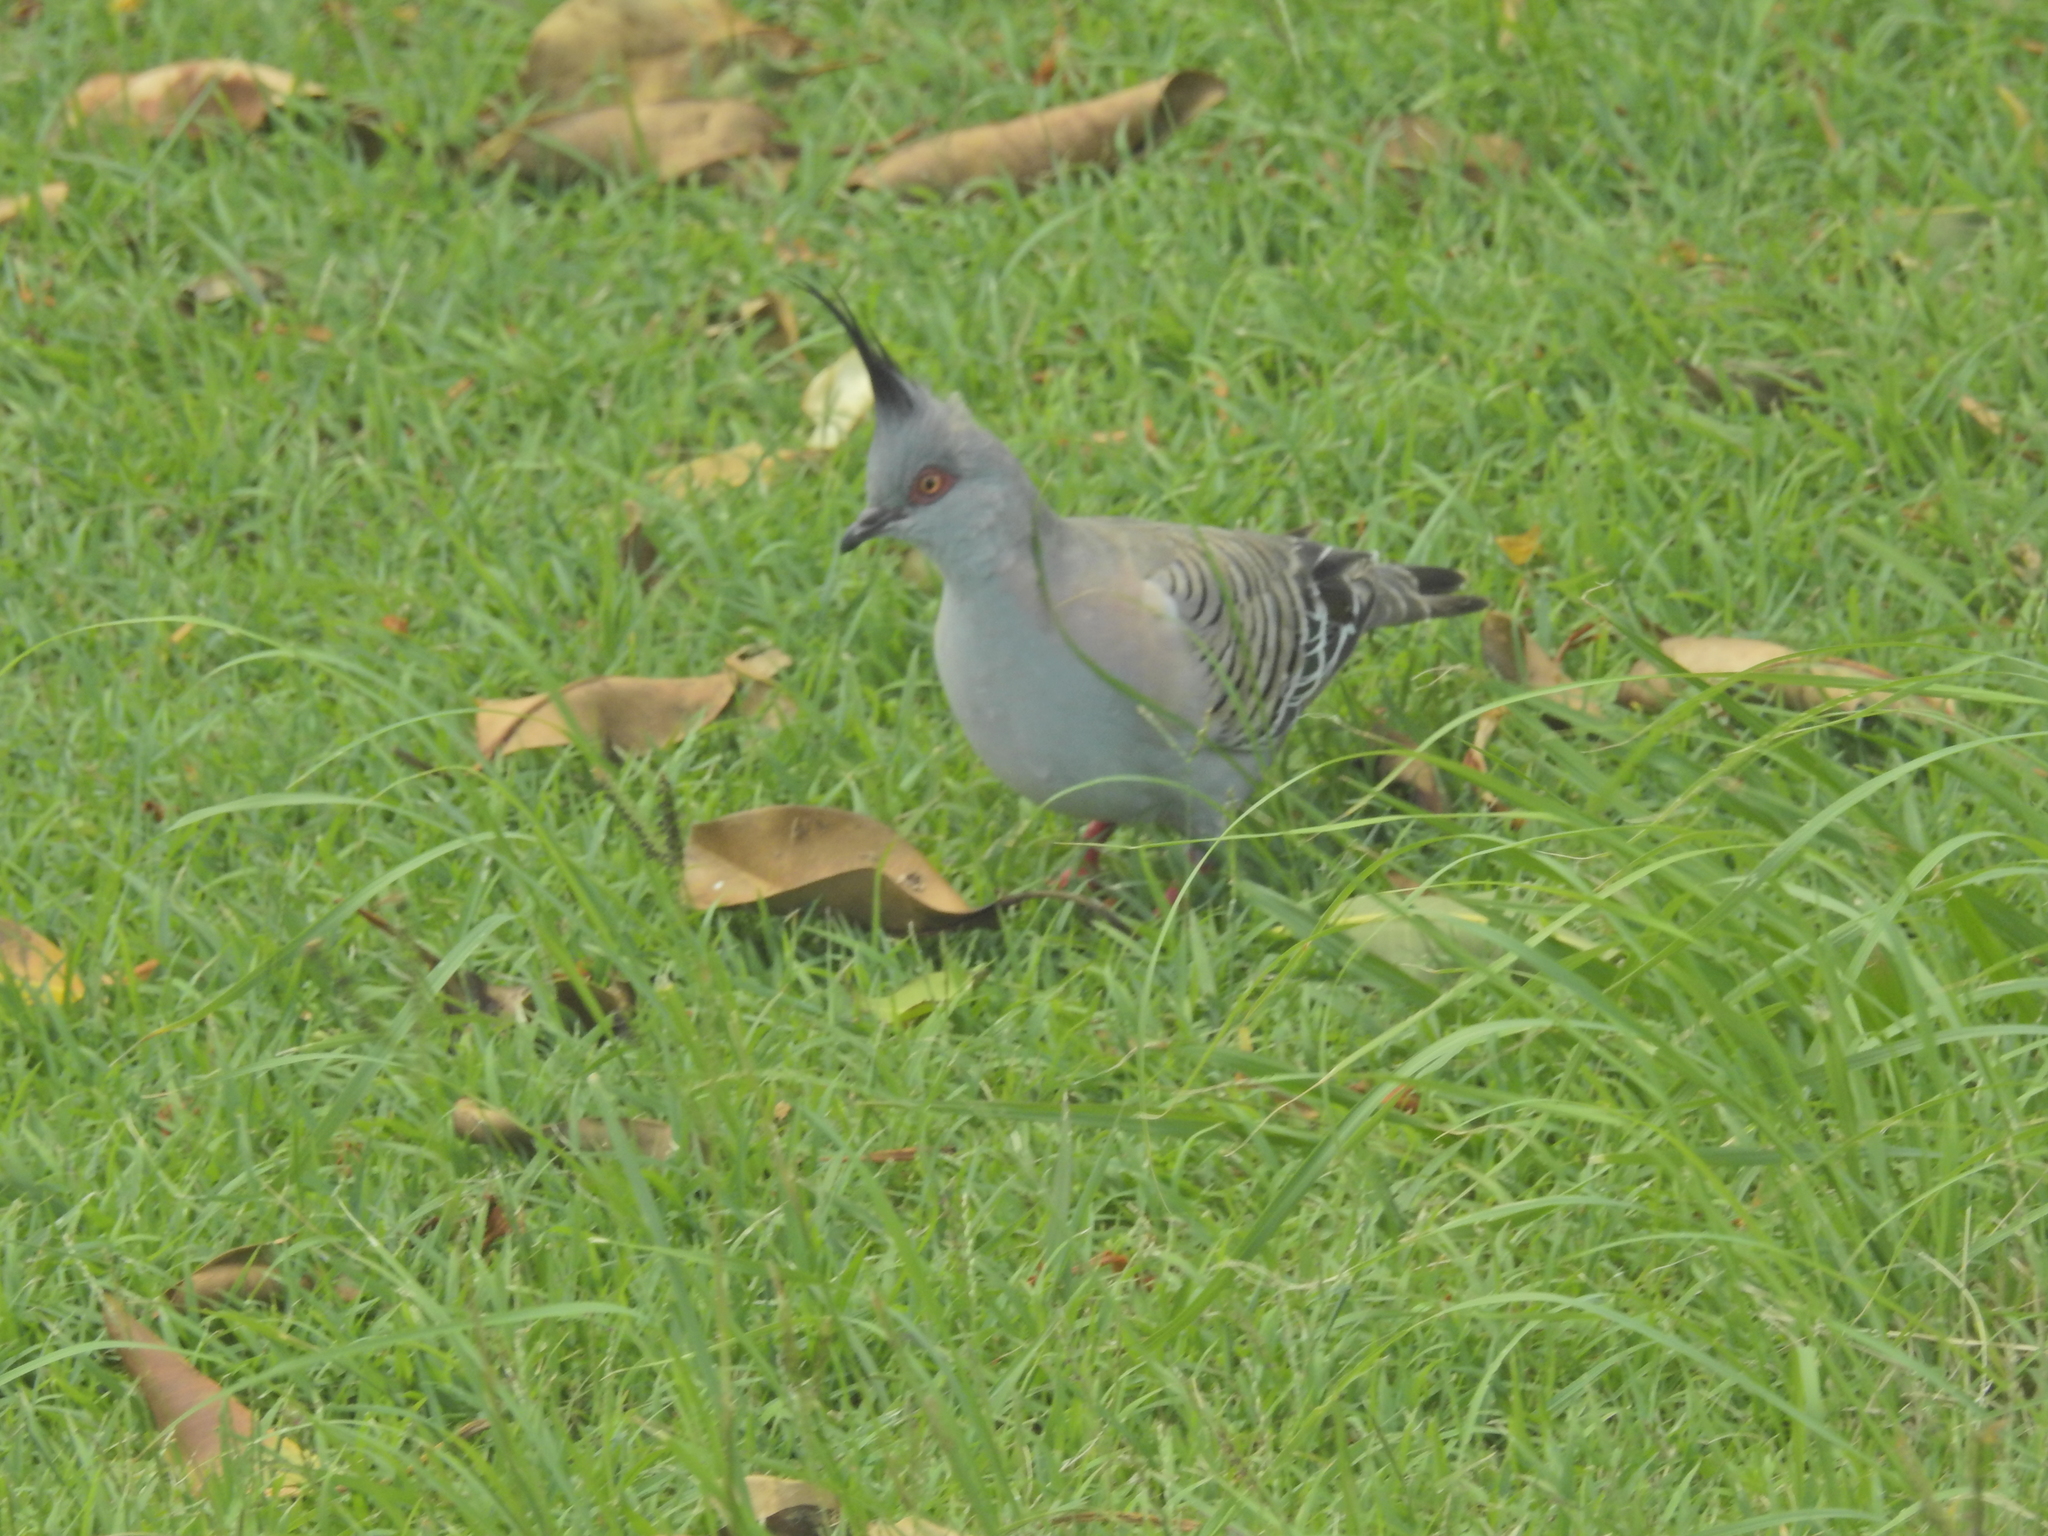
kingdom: Animalia
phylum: Chordata
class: Aves
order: Columbiformes
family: Columbidae
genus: Ocyphaps
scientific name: Ocyphaps lophotes
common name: Crested pigeon
